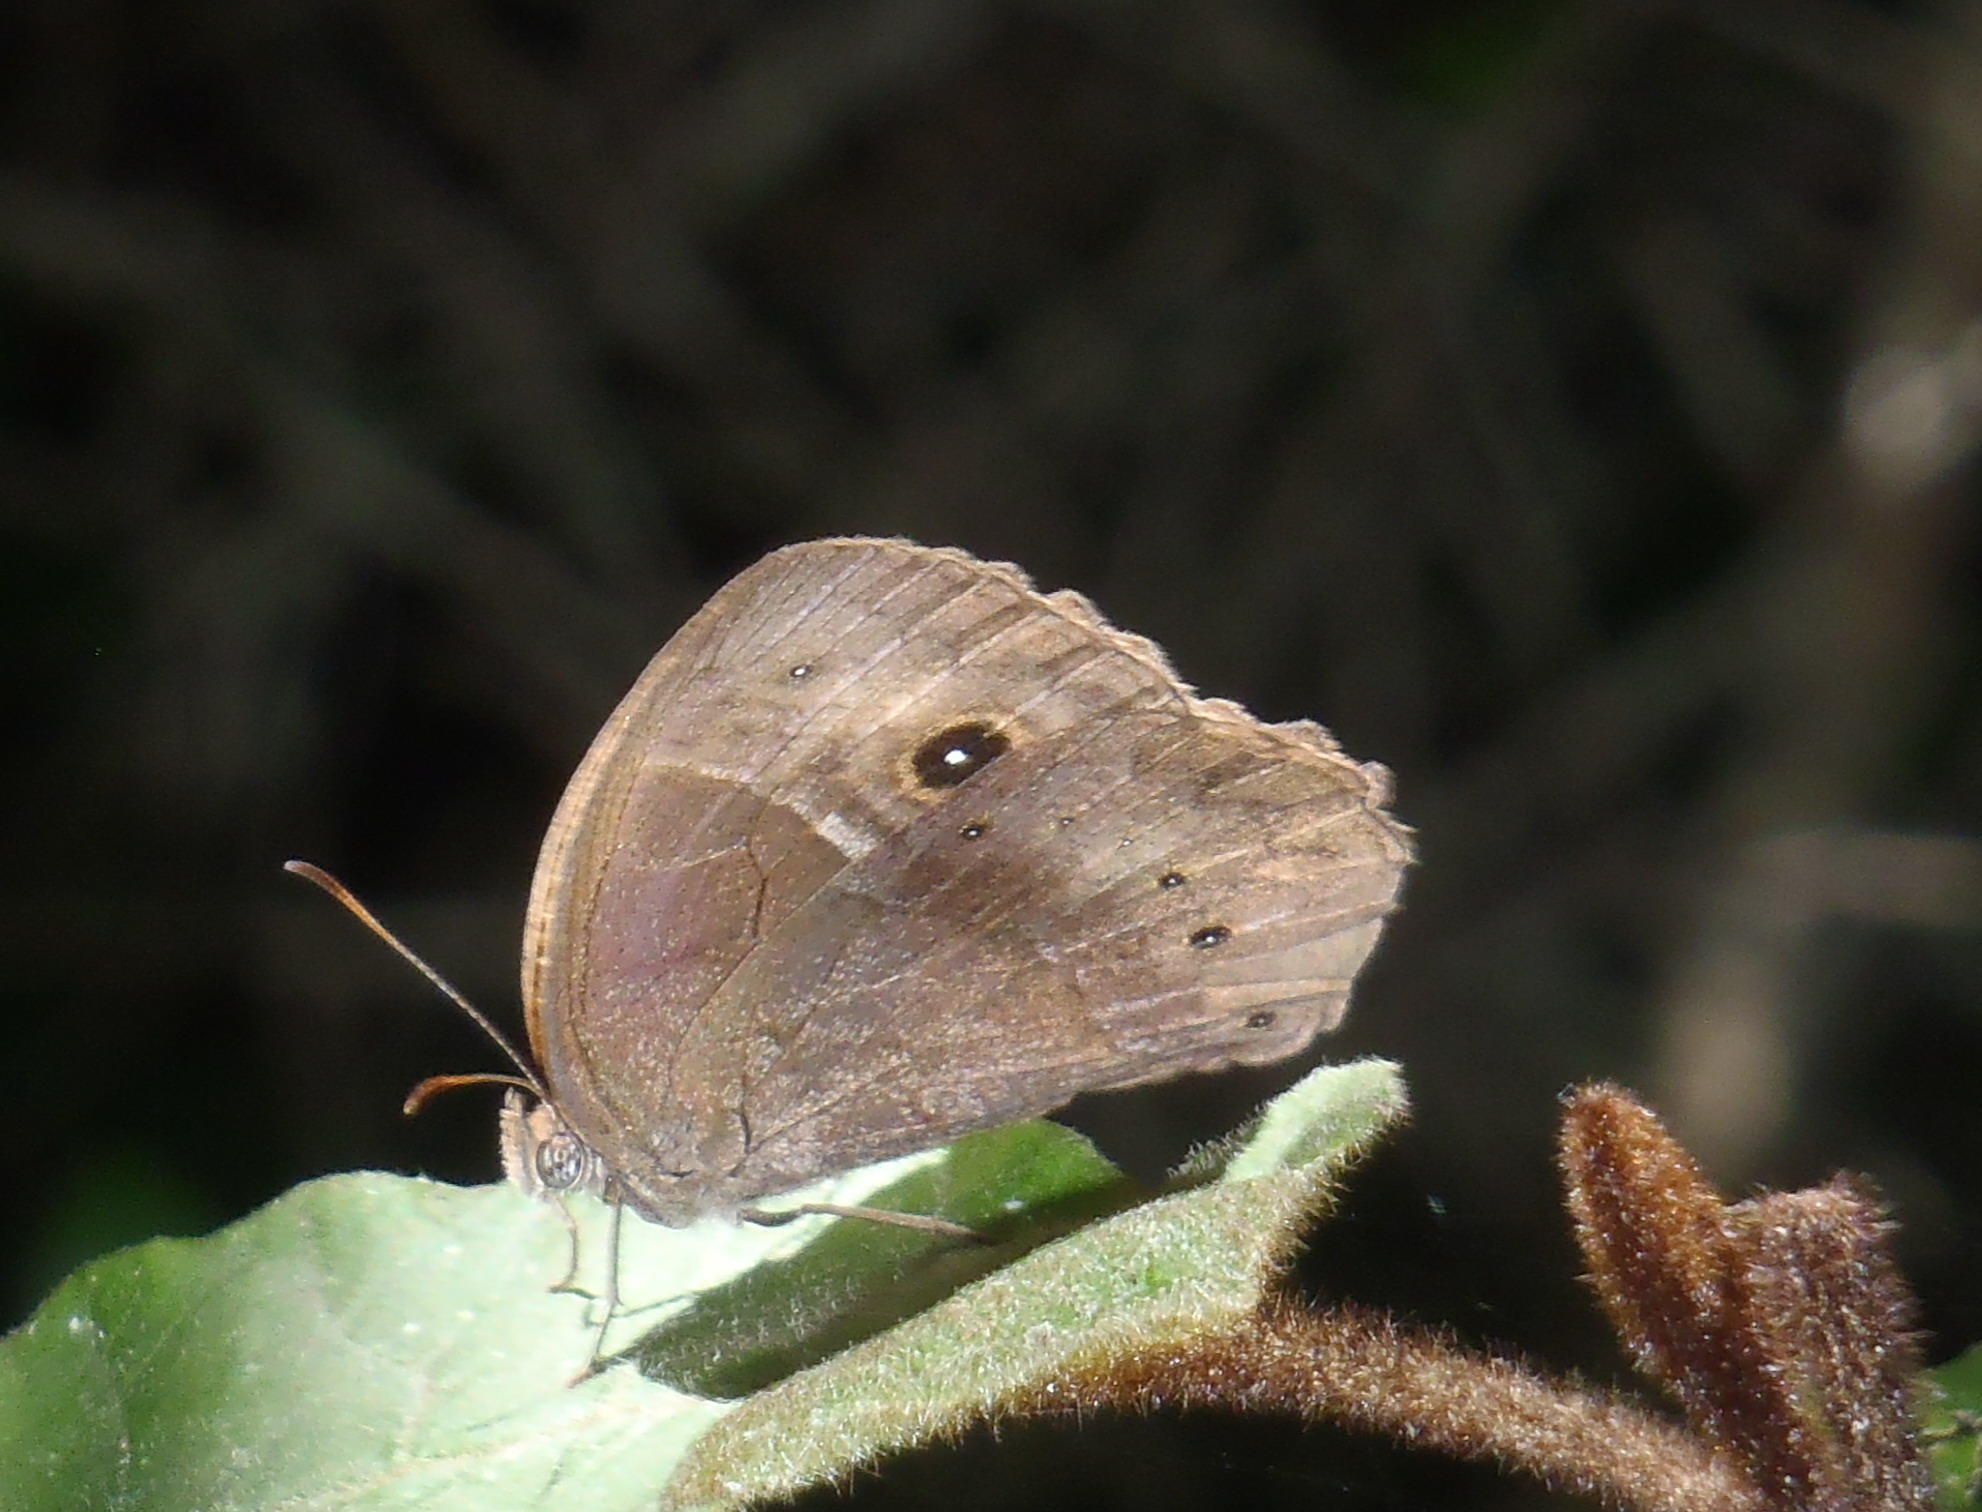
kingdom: Animalia
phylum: Arthropoda
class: Insecta
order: Lepidoptera
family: Nymphalidae
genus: Mycalesis
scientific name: Mycalesis rhacotis
